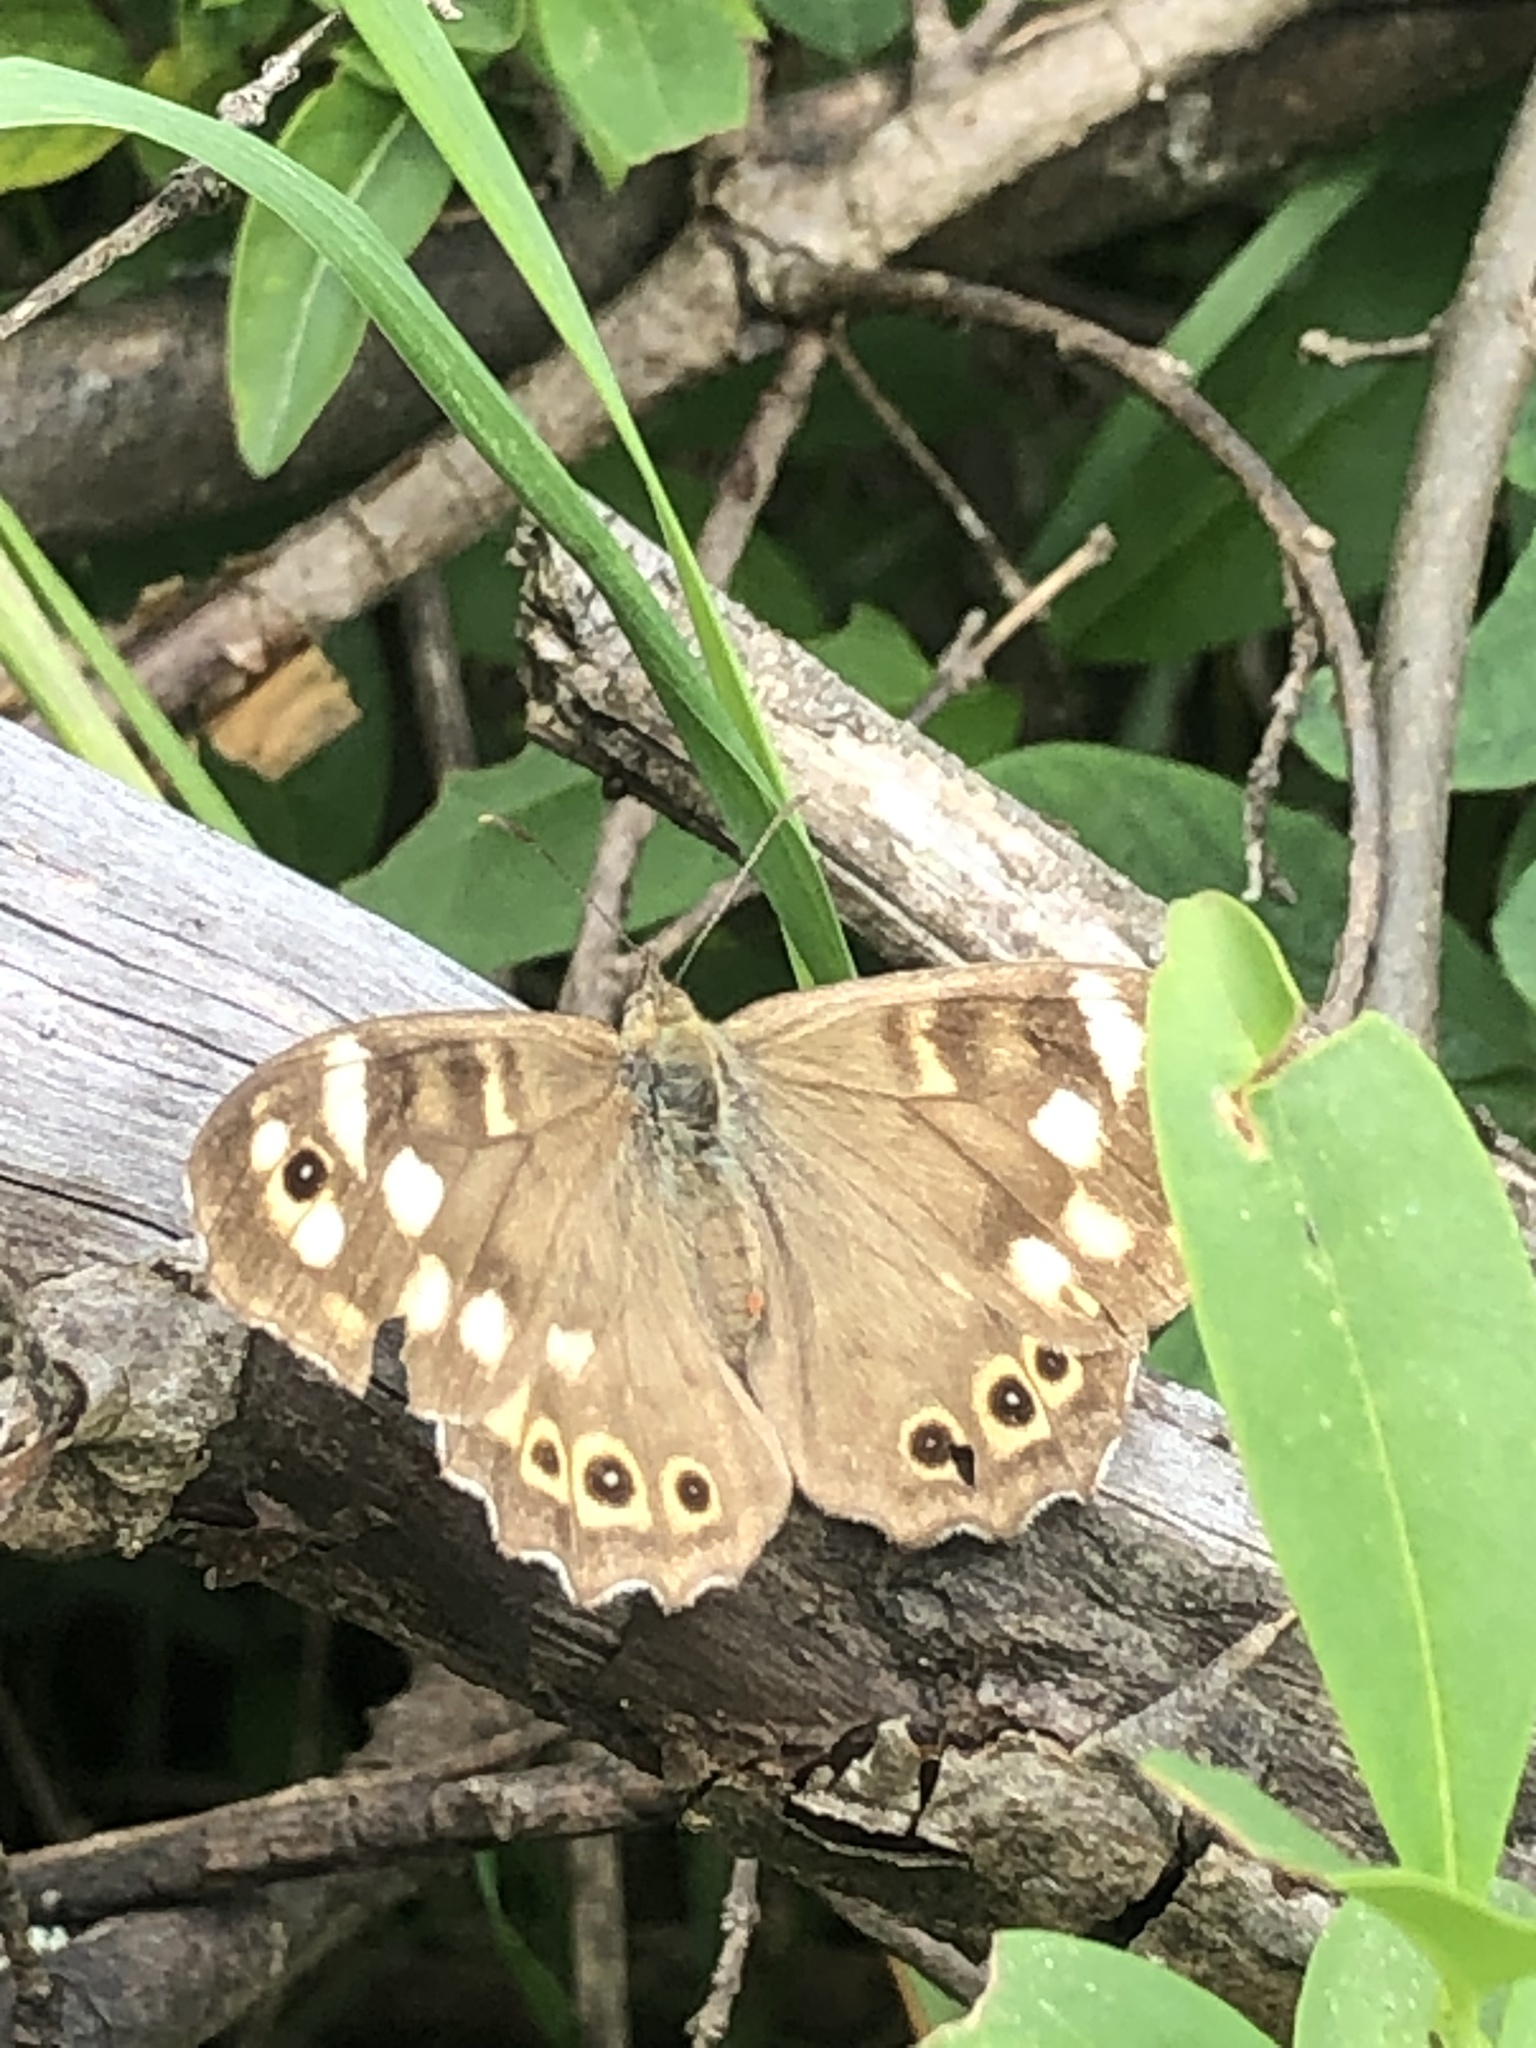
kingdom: Animalia
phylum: Arthropoda
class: Insecta
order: Lepidoptera
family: Nymphalidae
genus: Pararge
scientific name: Pararge aegeria
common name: Speckled wood
